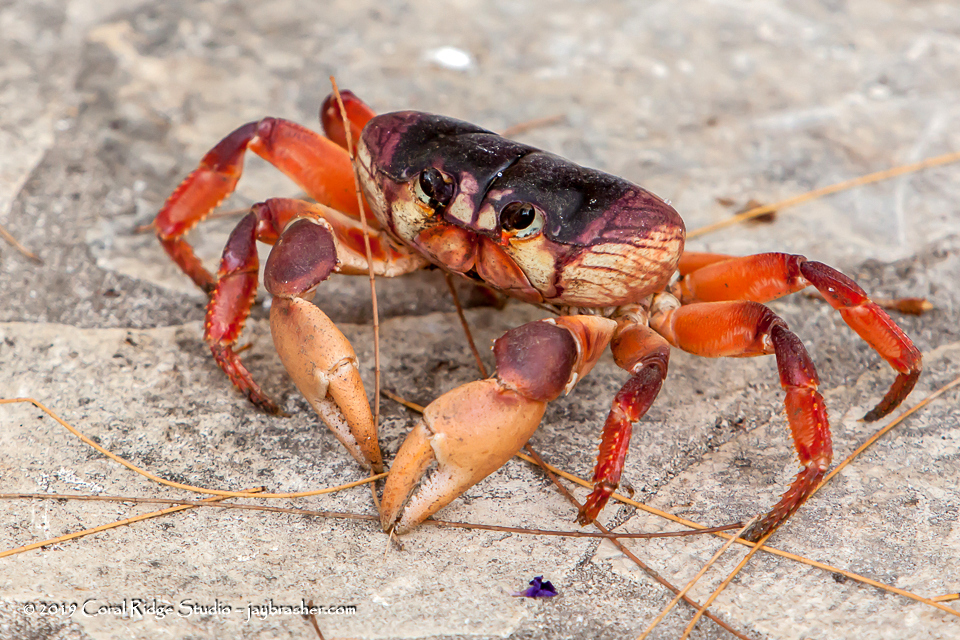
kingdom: Animalia
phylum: Arthropoda
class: Malacostraca
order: Decapoda
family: Gecarcinidae
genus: Gecarcinus
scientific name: Gecarcinus ruricola
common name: Black land crab
